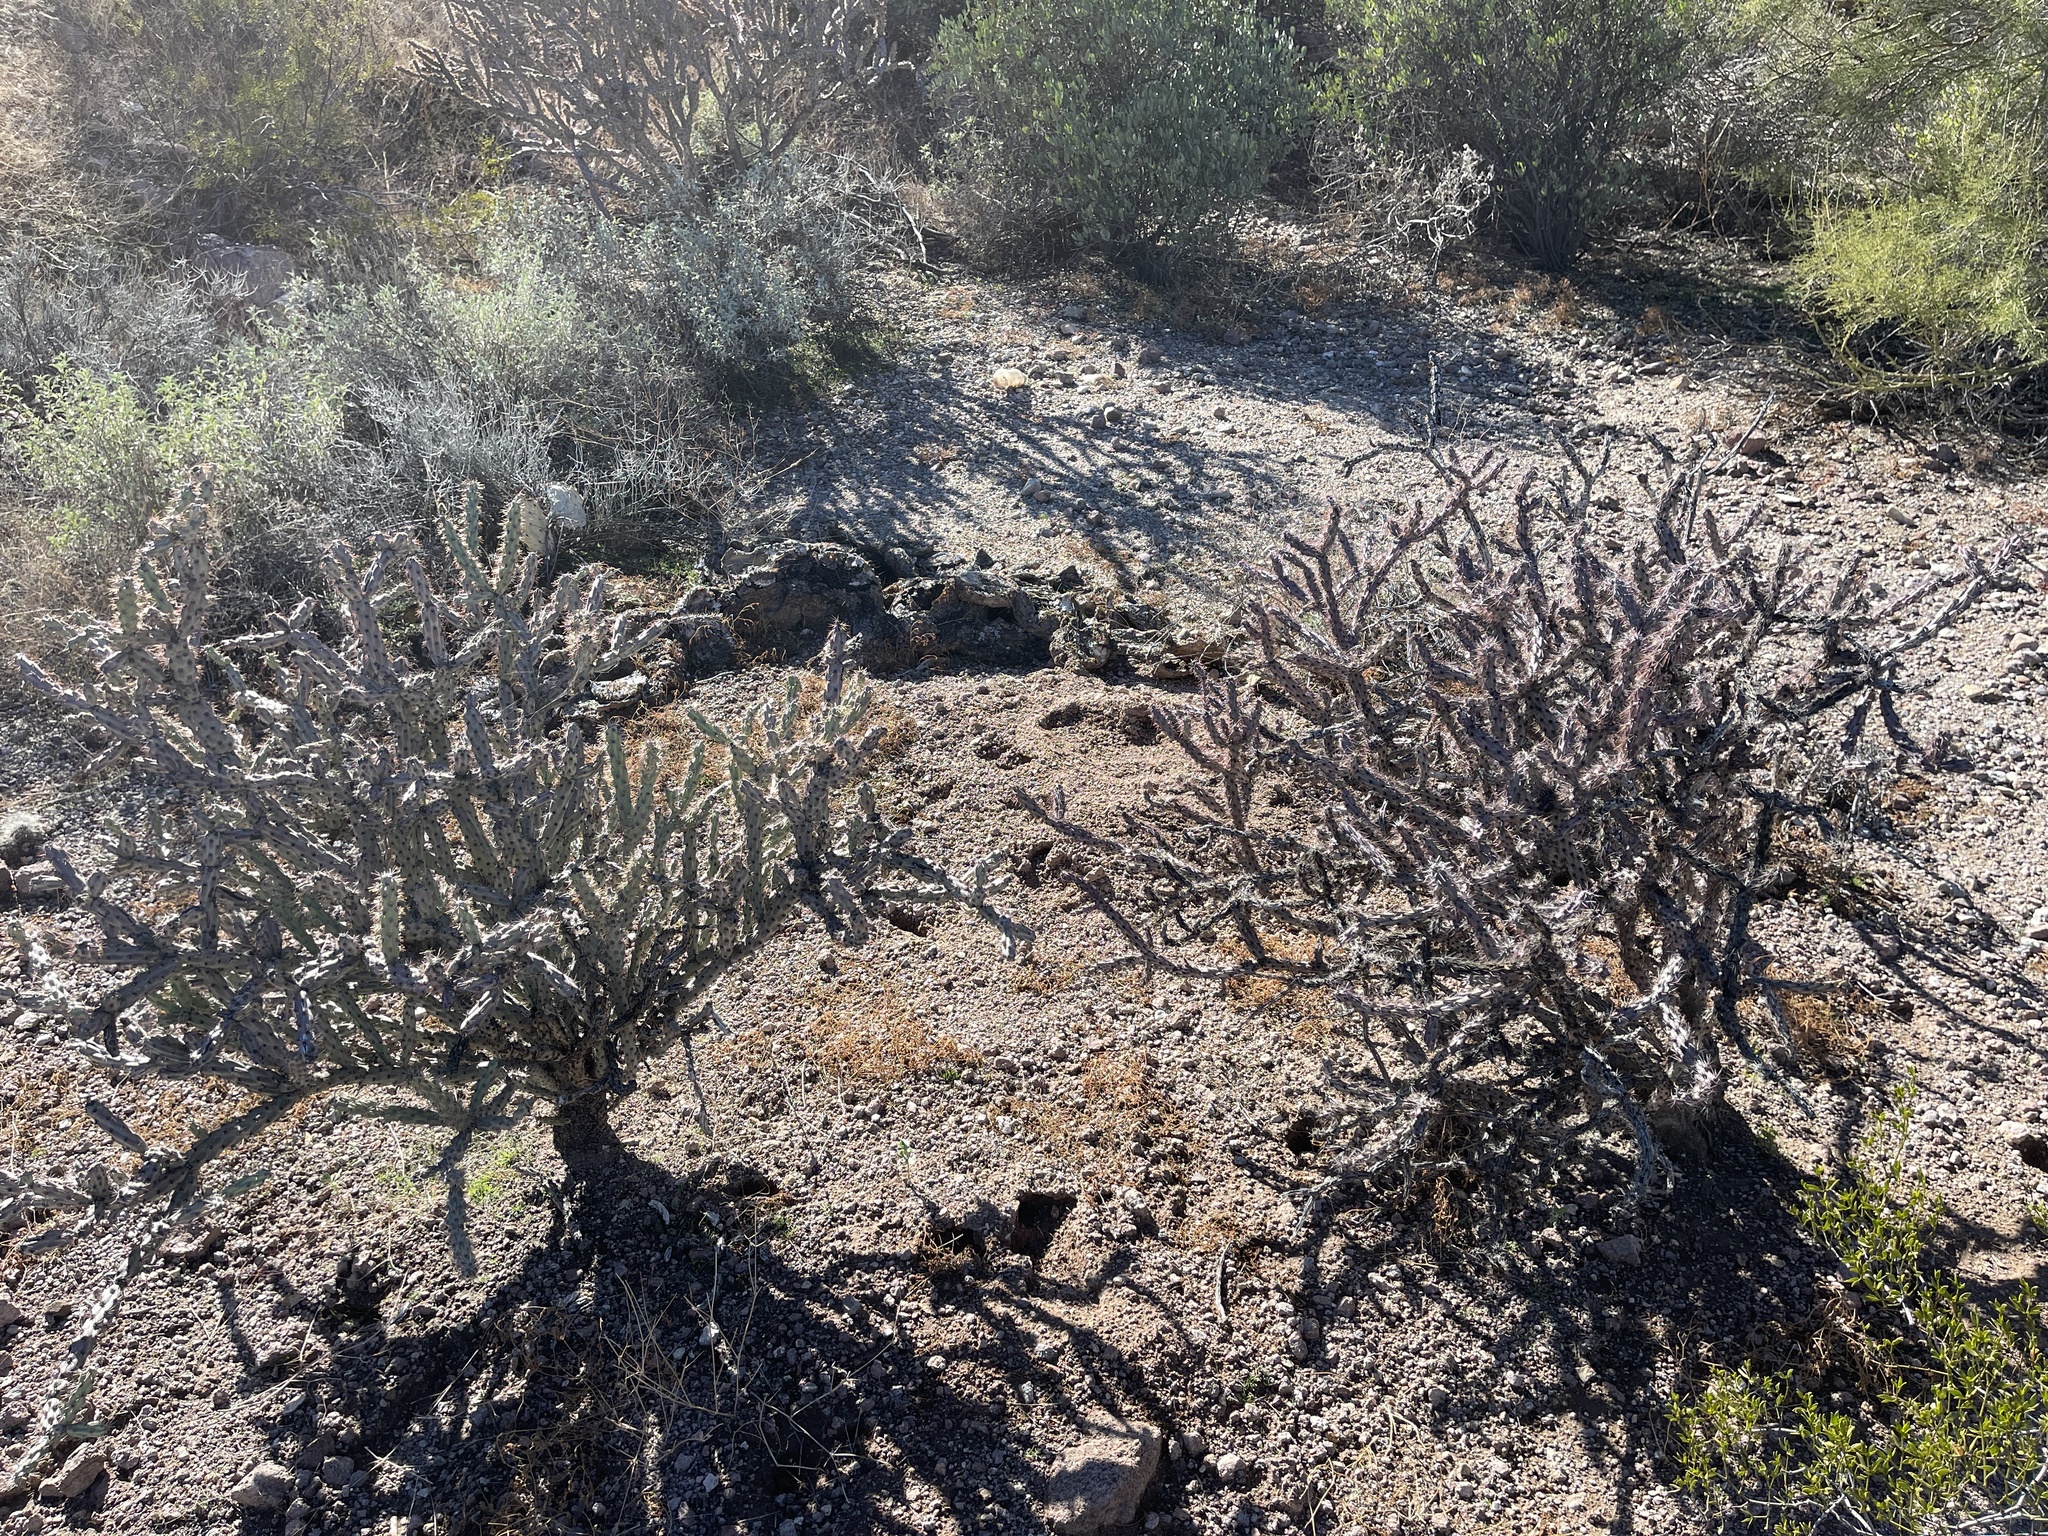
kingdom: Plantae
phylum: Tracheophyta
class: Magnoliopsida
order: Caryophyllales
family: Cactaceae
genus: Cylindropuntia
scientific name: Cylindropuntia thurberi
